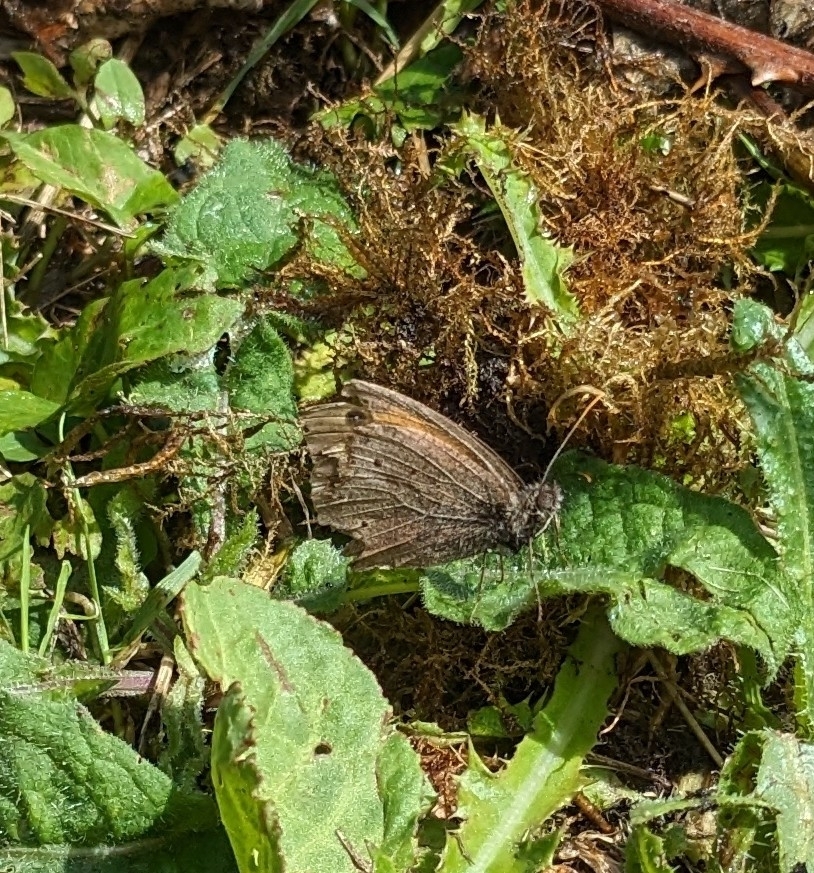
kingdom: Animalia
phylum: Arthropoda
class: Insecta
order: Lepidoptera
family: Nymphalidae
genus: Maniola
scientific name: Maniola jurtina
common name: Meadow brown
